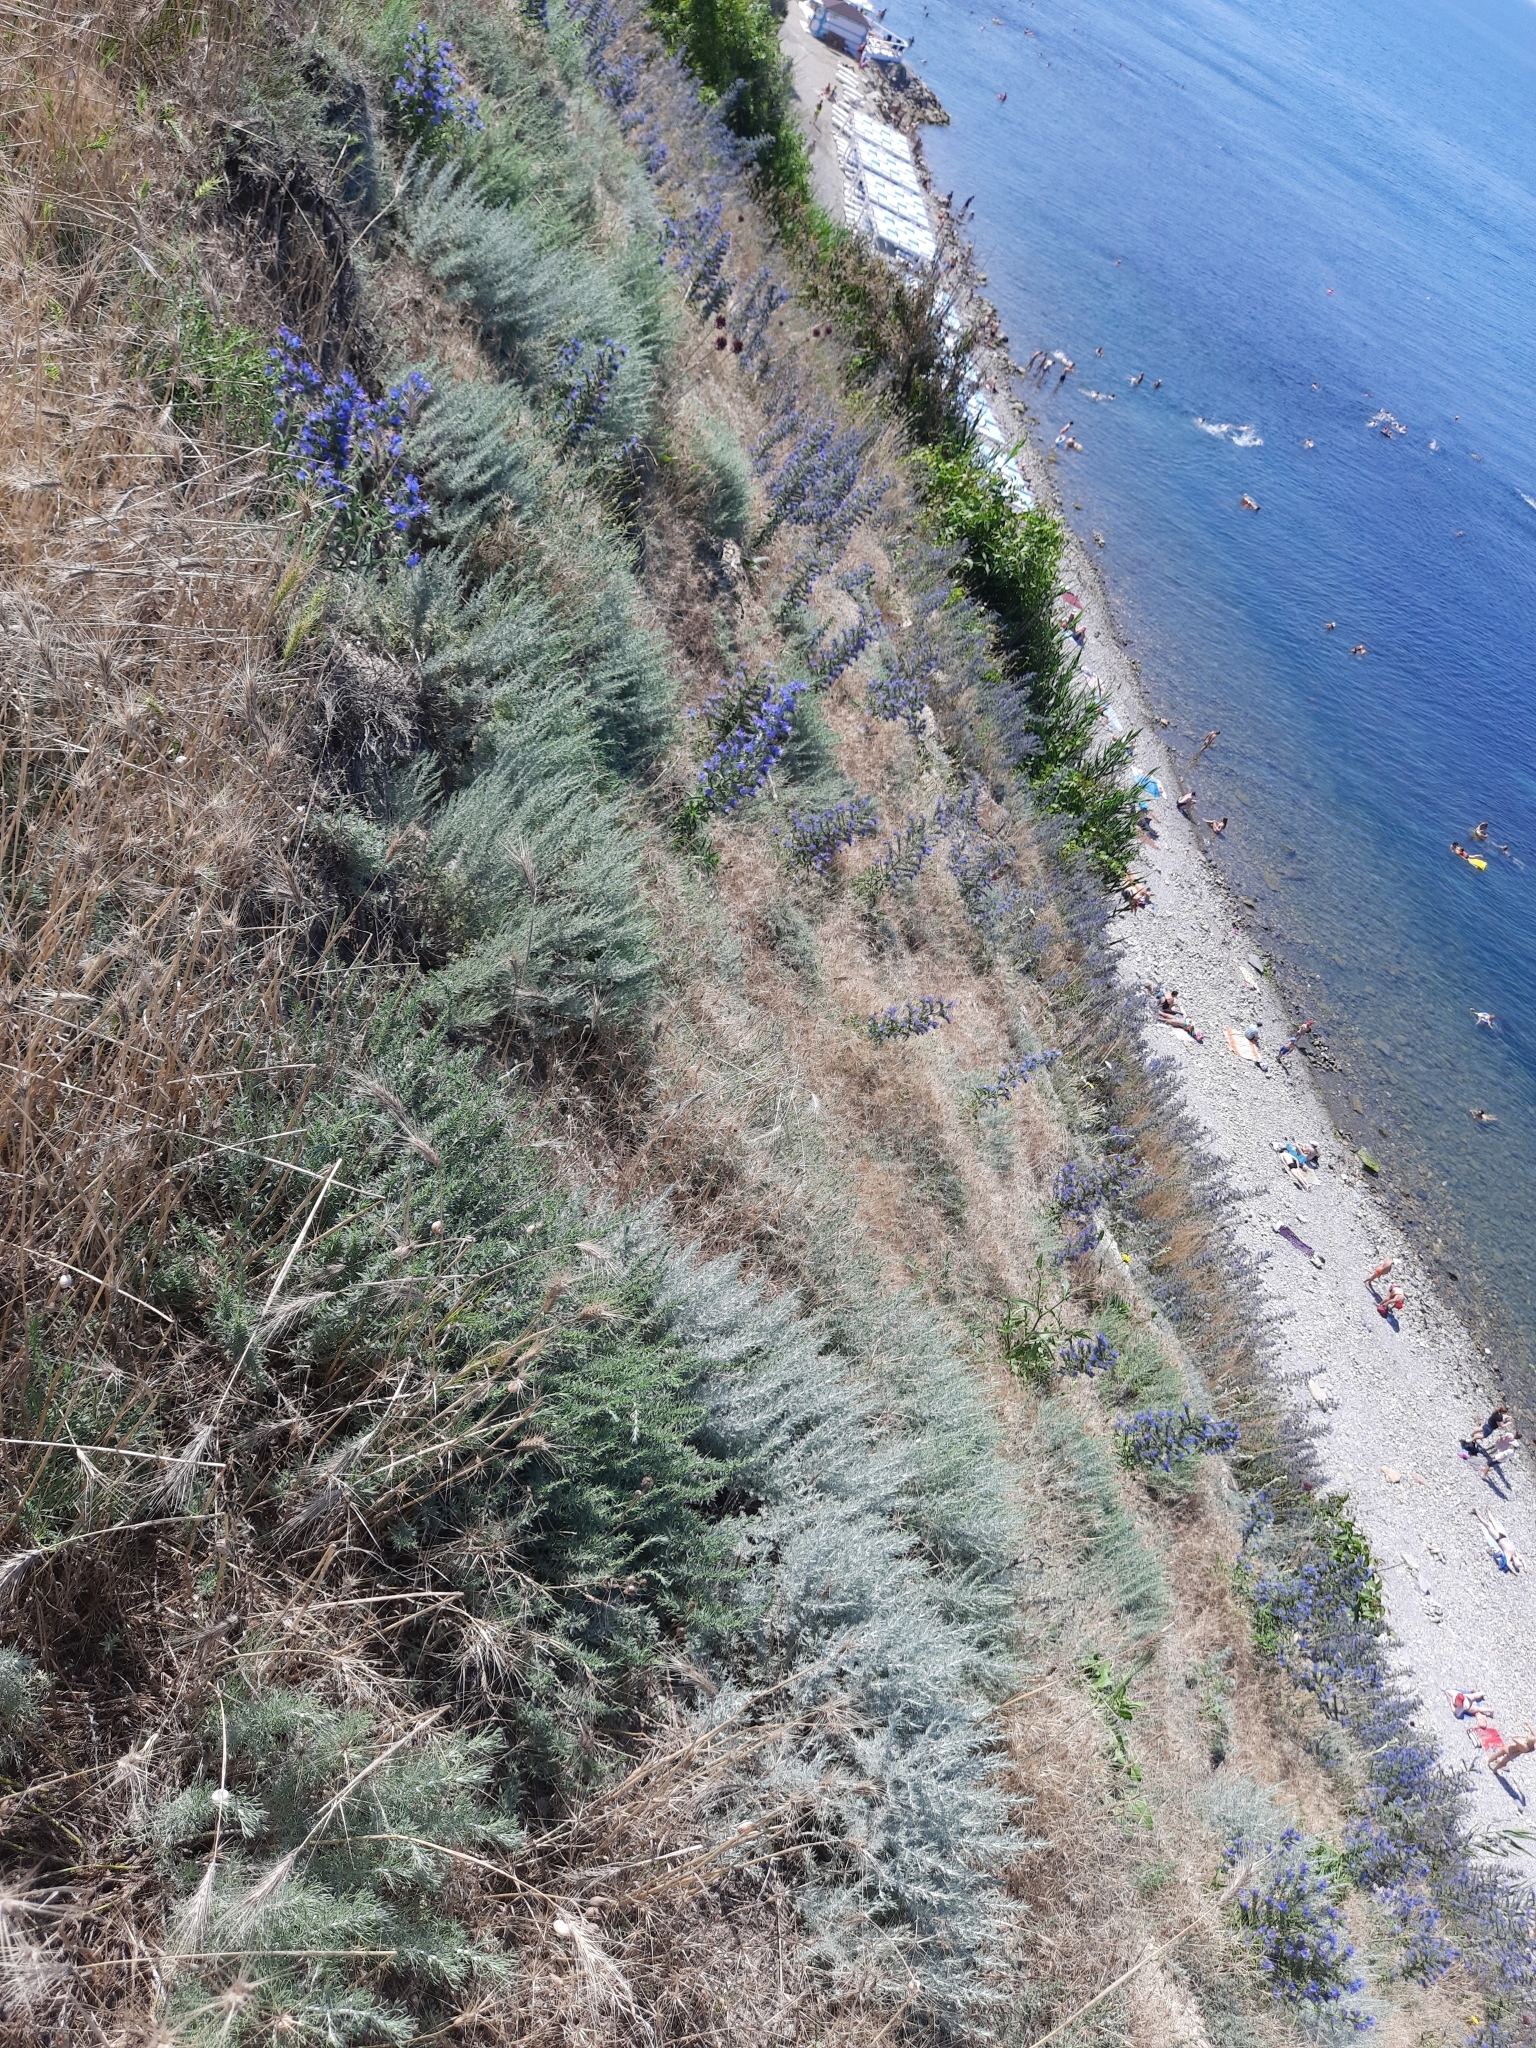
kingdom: Plantae
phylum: Tracheophyta
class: Magnoliopsida
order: Boraginales
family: Boraginaceae
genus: Echium
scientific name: Echium vulgare
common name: Common viper's bugloss
